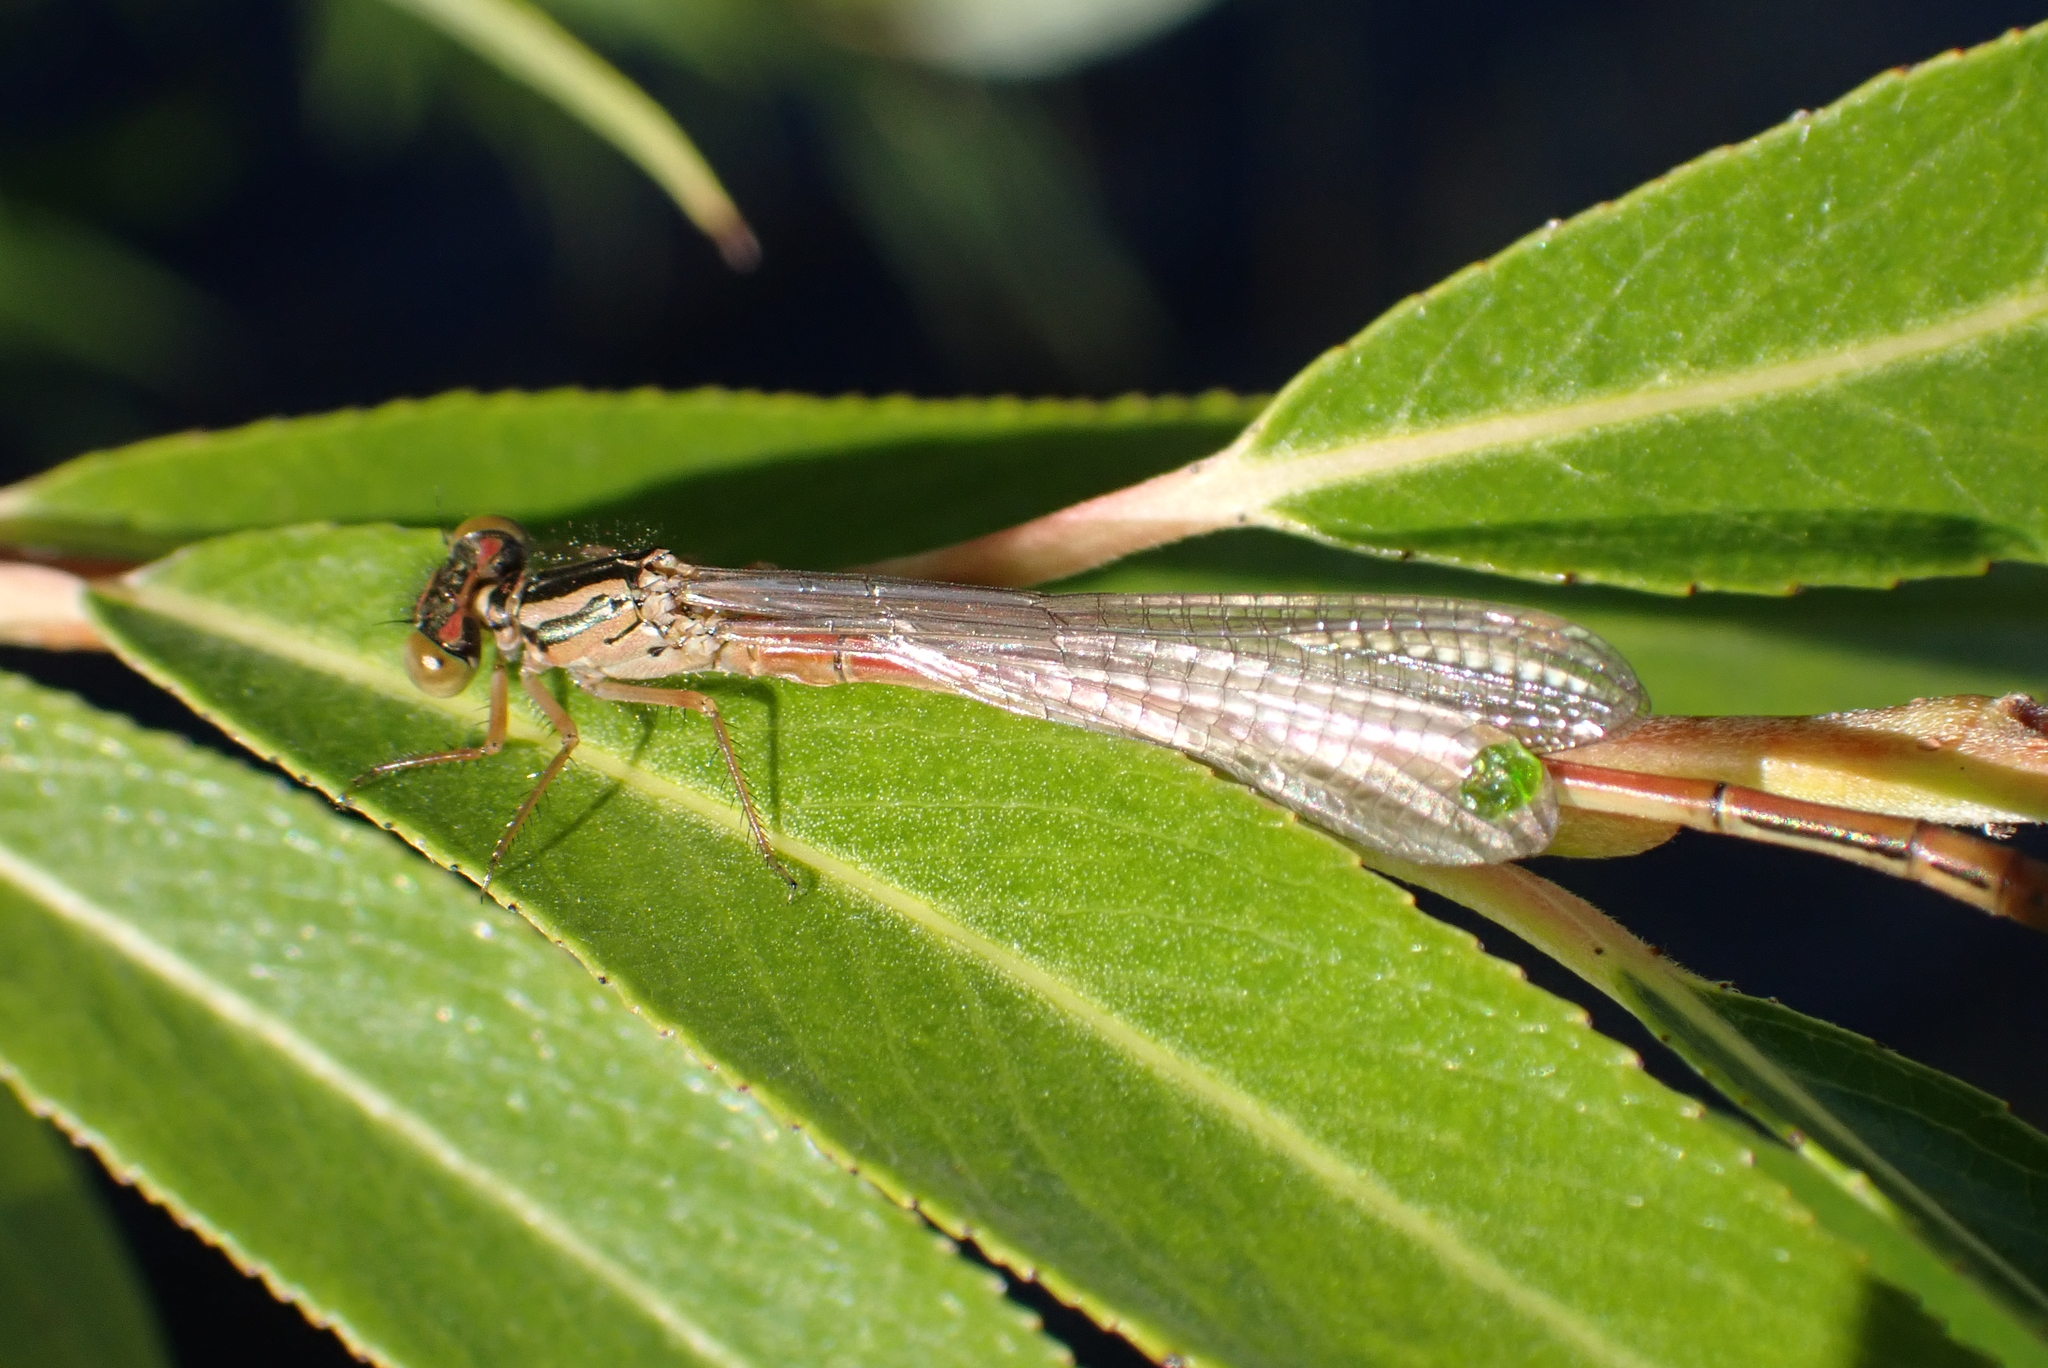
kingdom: Animalia
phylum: Arthropoda
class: Insecta
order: Odonata
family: Coenagrionidae
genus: Xanthocnemis
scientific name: Xanthocnemis zealandica
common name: Common redcoat damselfly
